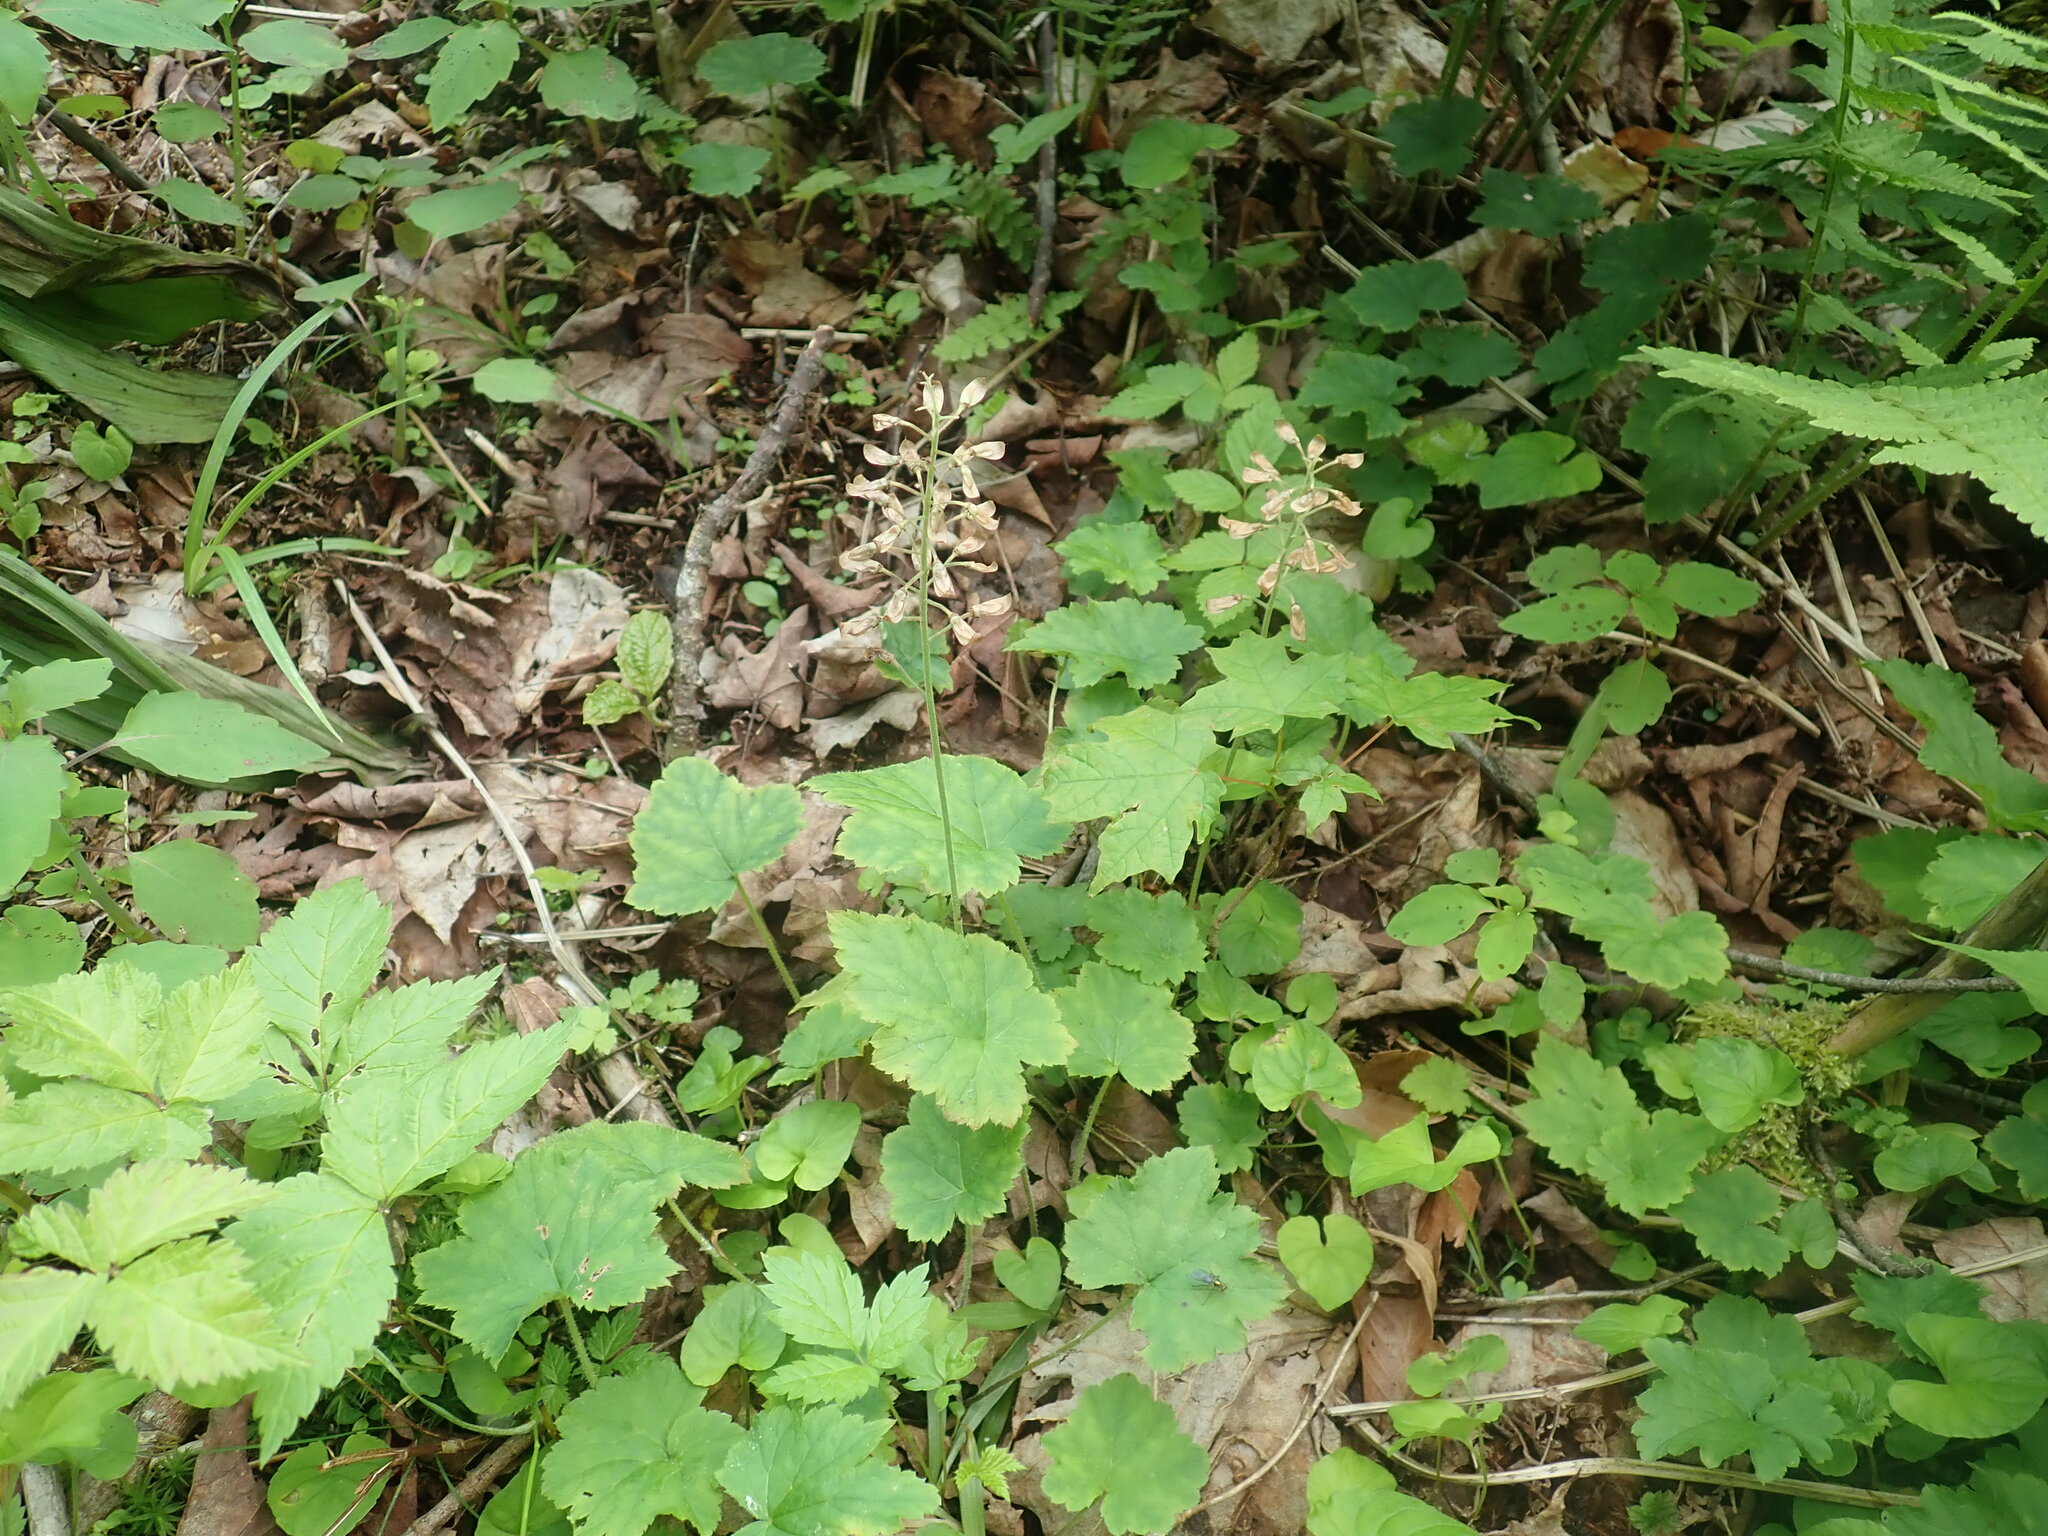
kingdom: Plantae
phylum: Tracheophyta
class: Magnoliopsida
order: Saxifragales
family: Saxifragaceae
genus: Tiarella
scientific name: Tiarella stolonifera
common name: Stoloniferous foamflower
